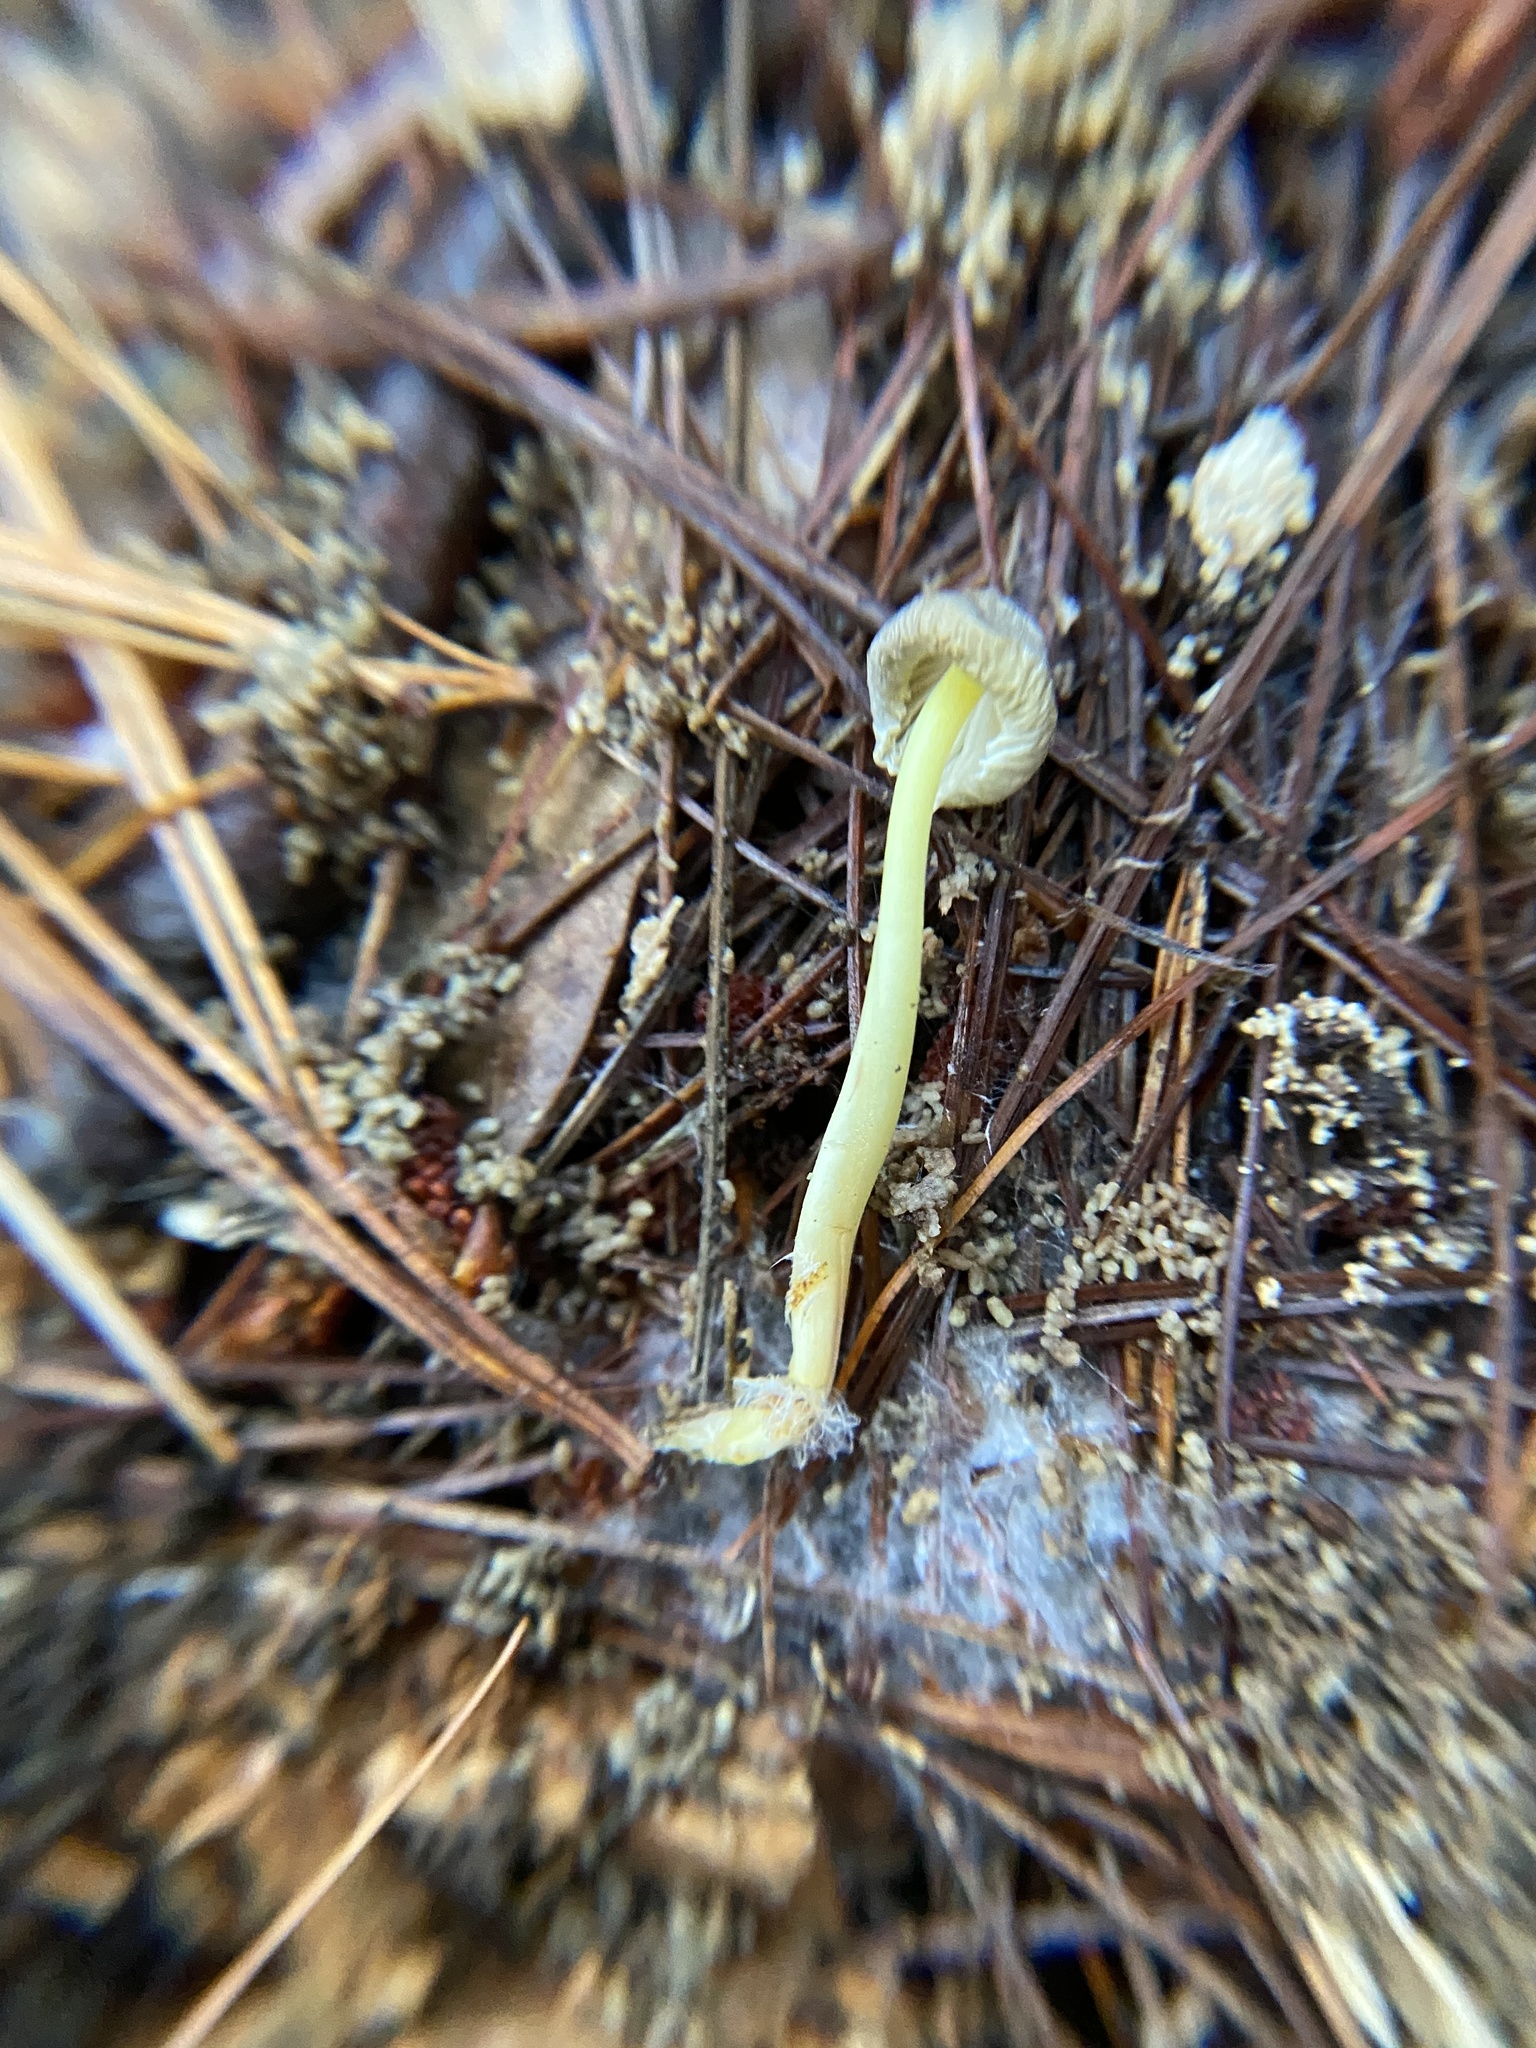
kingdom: Fungi
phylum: Basidiomycota
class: Agaricomycetes
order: Agaricales
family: Mycenaceae
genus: Mycena
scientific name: Mycena epipterygia
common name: Yellowleg bonnet
